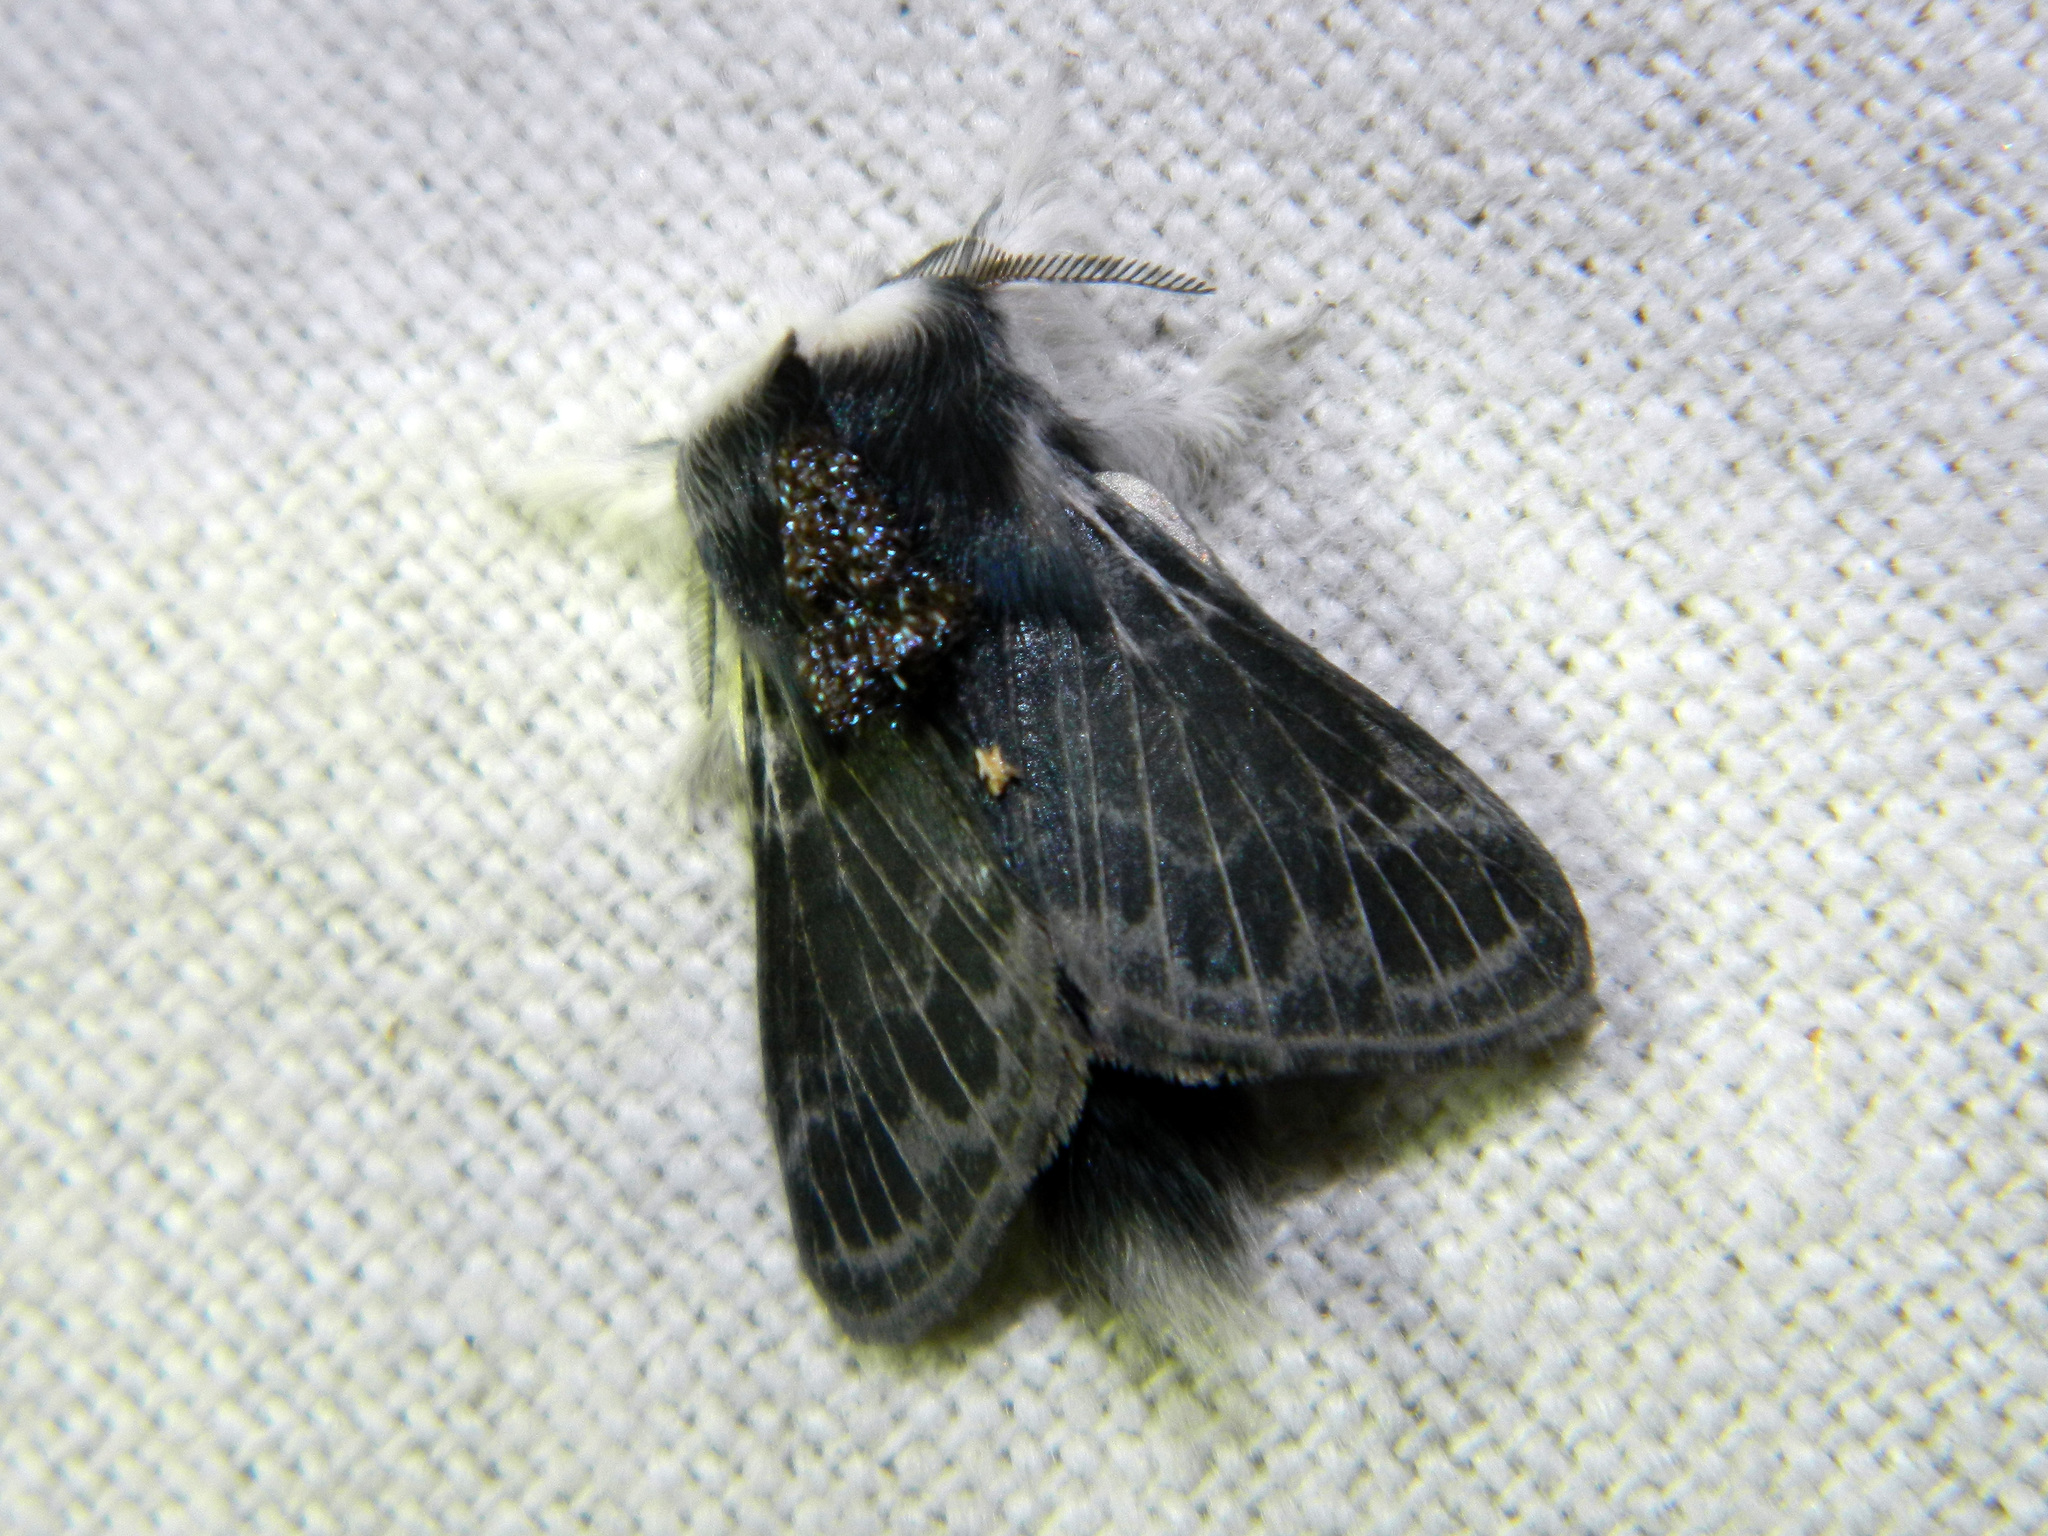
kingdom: Animalia
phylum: Arthropoda
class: Insecta
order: Lepidoptera
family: Lasiocampidae
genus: Tolype
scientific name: Tolype laricis
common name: Larch tolype moth
